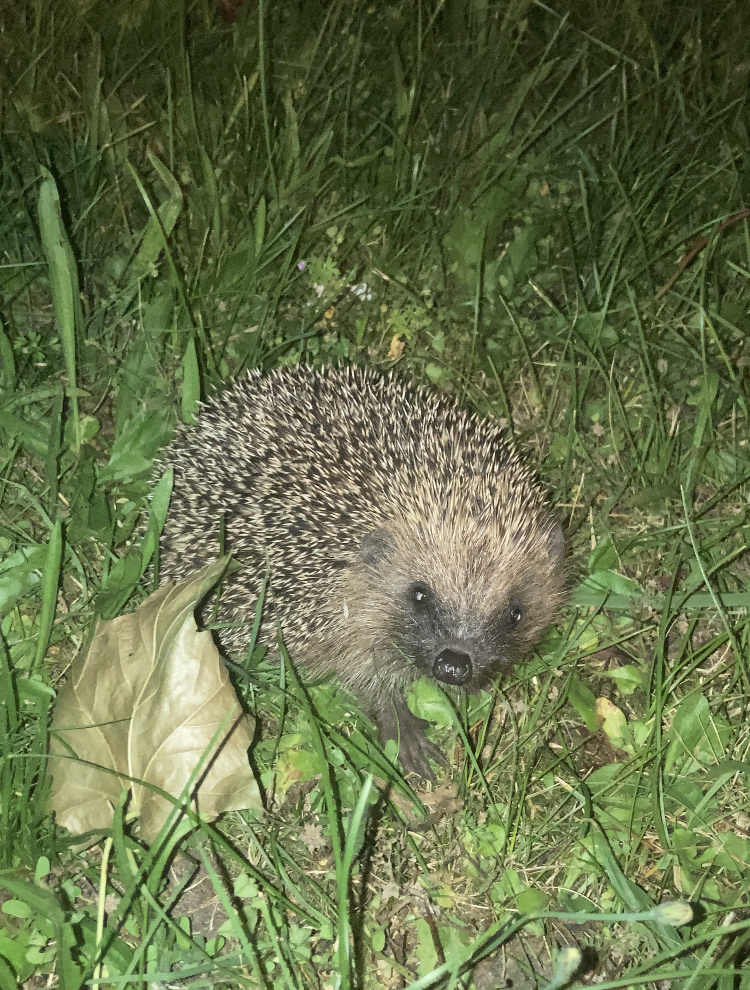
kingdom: Animalia
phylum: Chordata
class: Mammalia
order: Erinaceomorpha
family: Erinaceidae
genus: Erinaceus
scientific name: Erinaceus europaeus
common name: West european hedgehog
